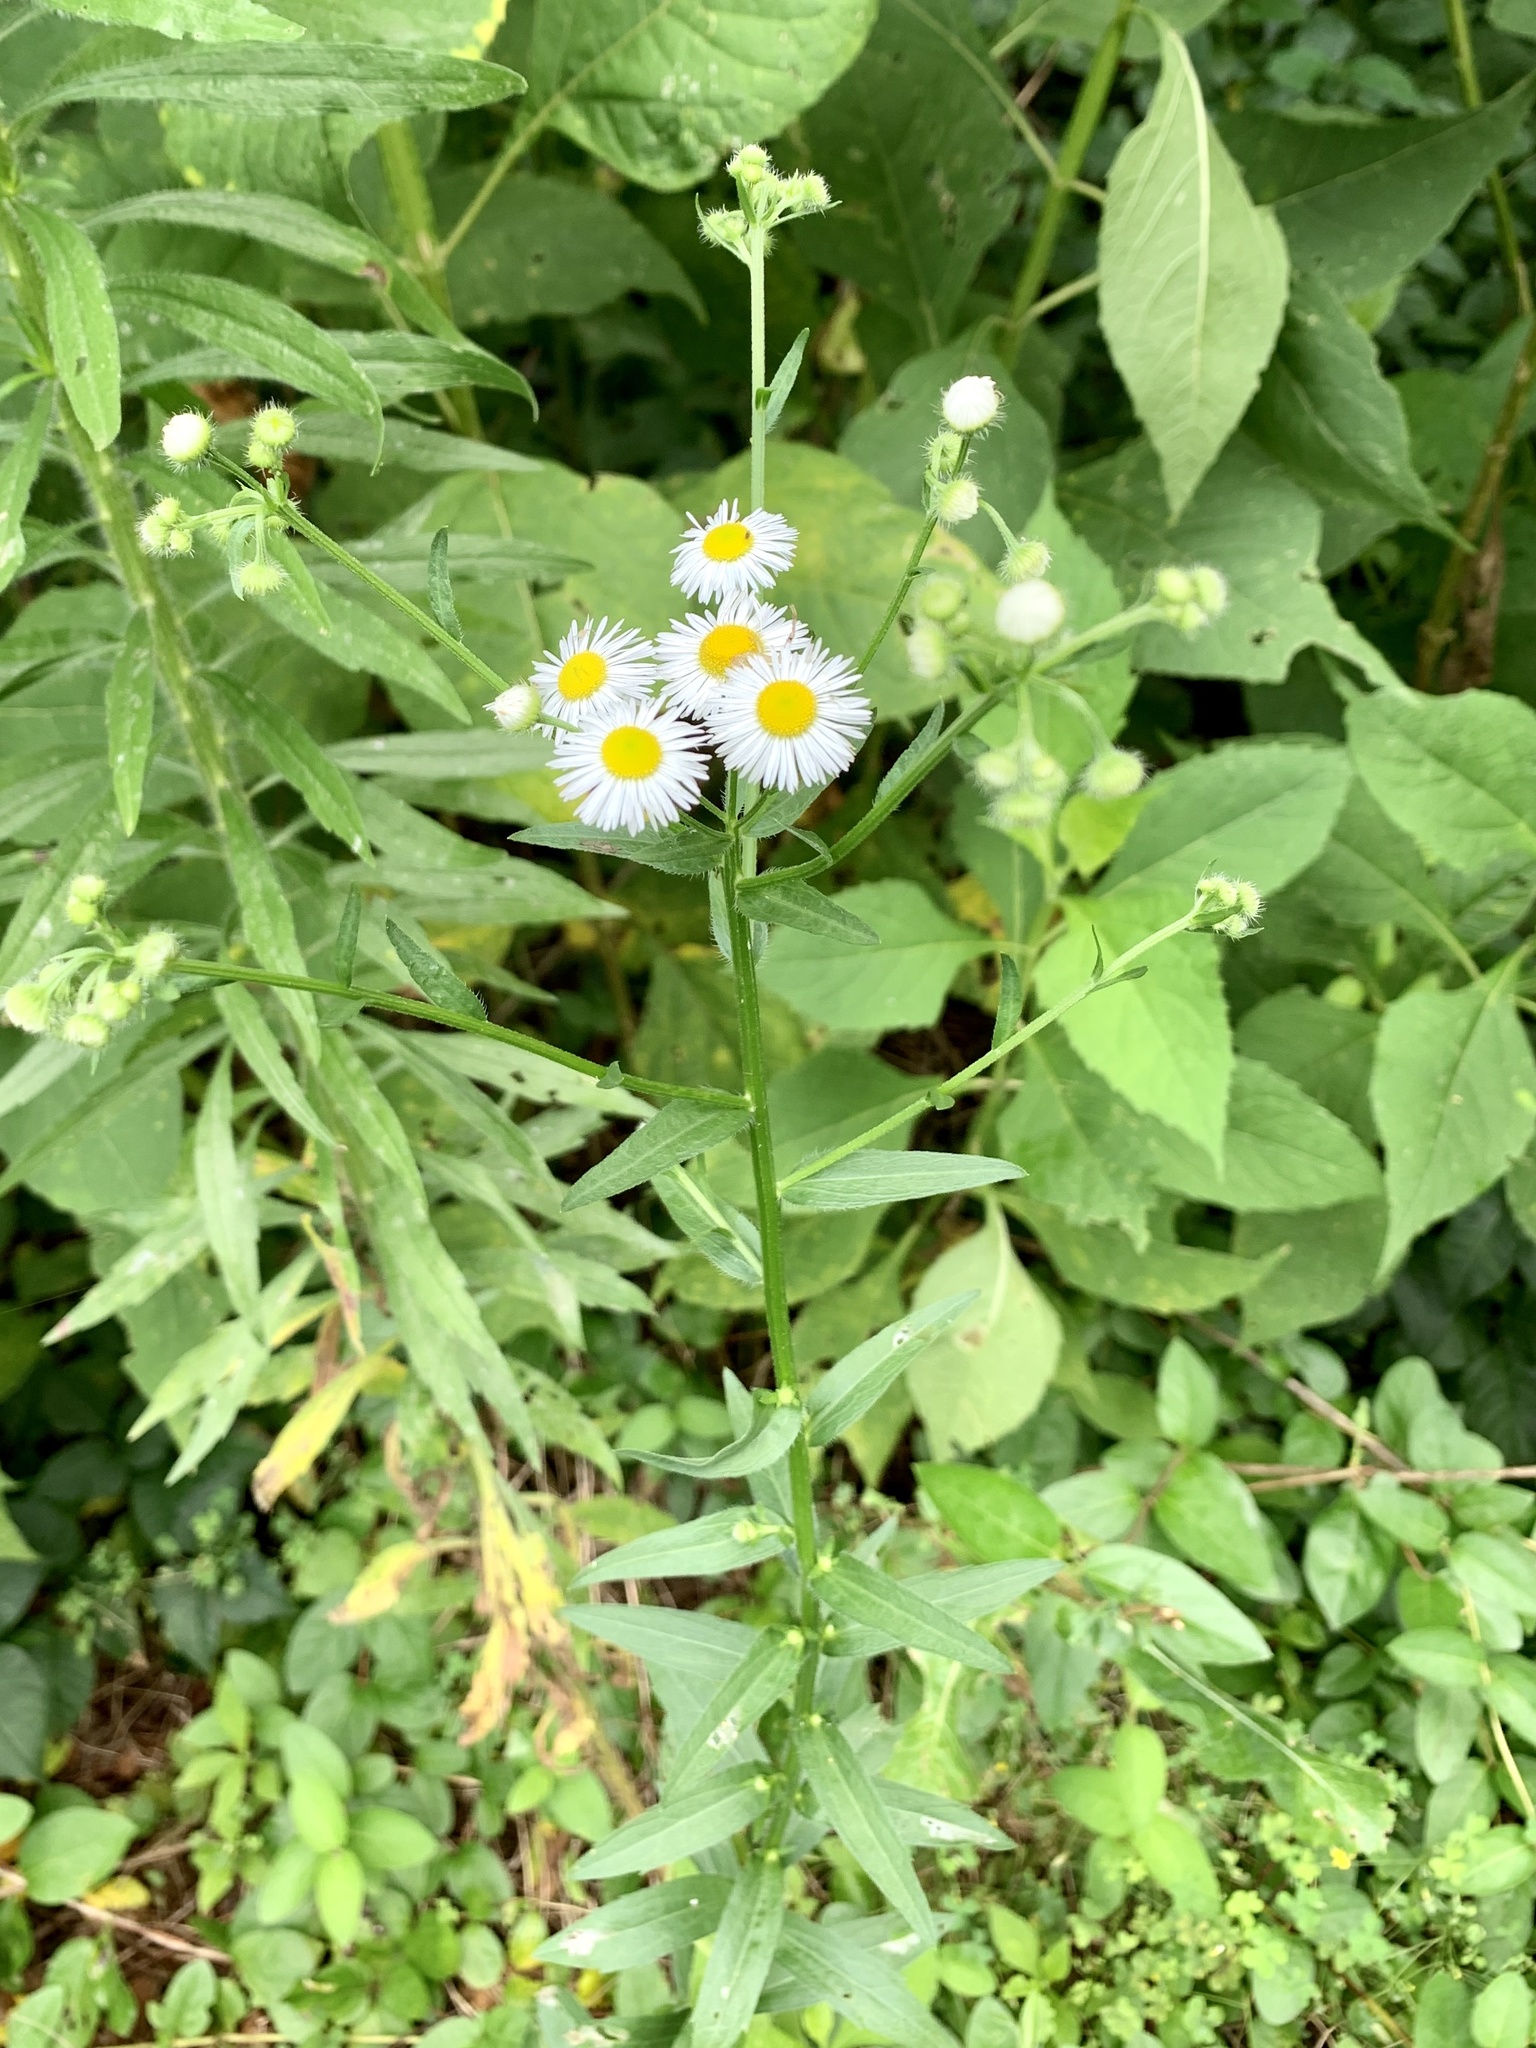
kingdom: Plantae
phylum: Tracheophyta
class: Magnoliopsida
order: Asterales
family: Asteraceae
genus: Erigeron
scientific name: Erigeron annuus
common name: Tall fleabane
